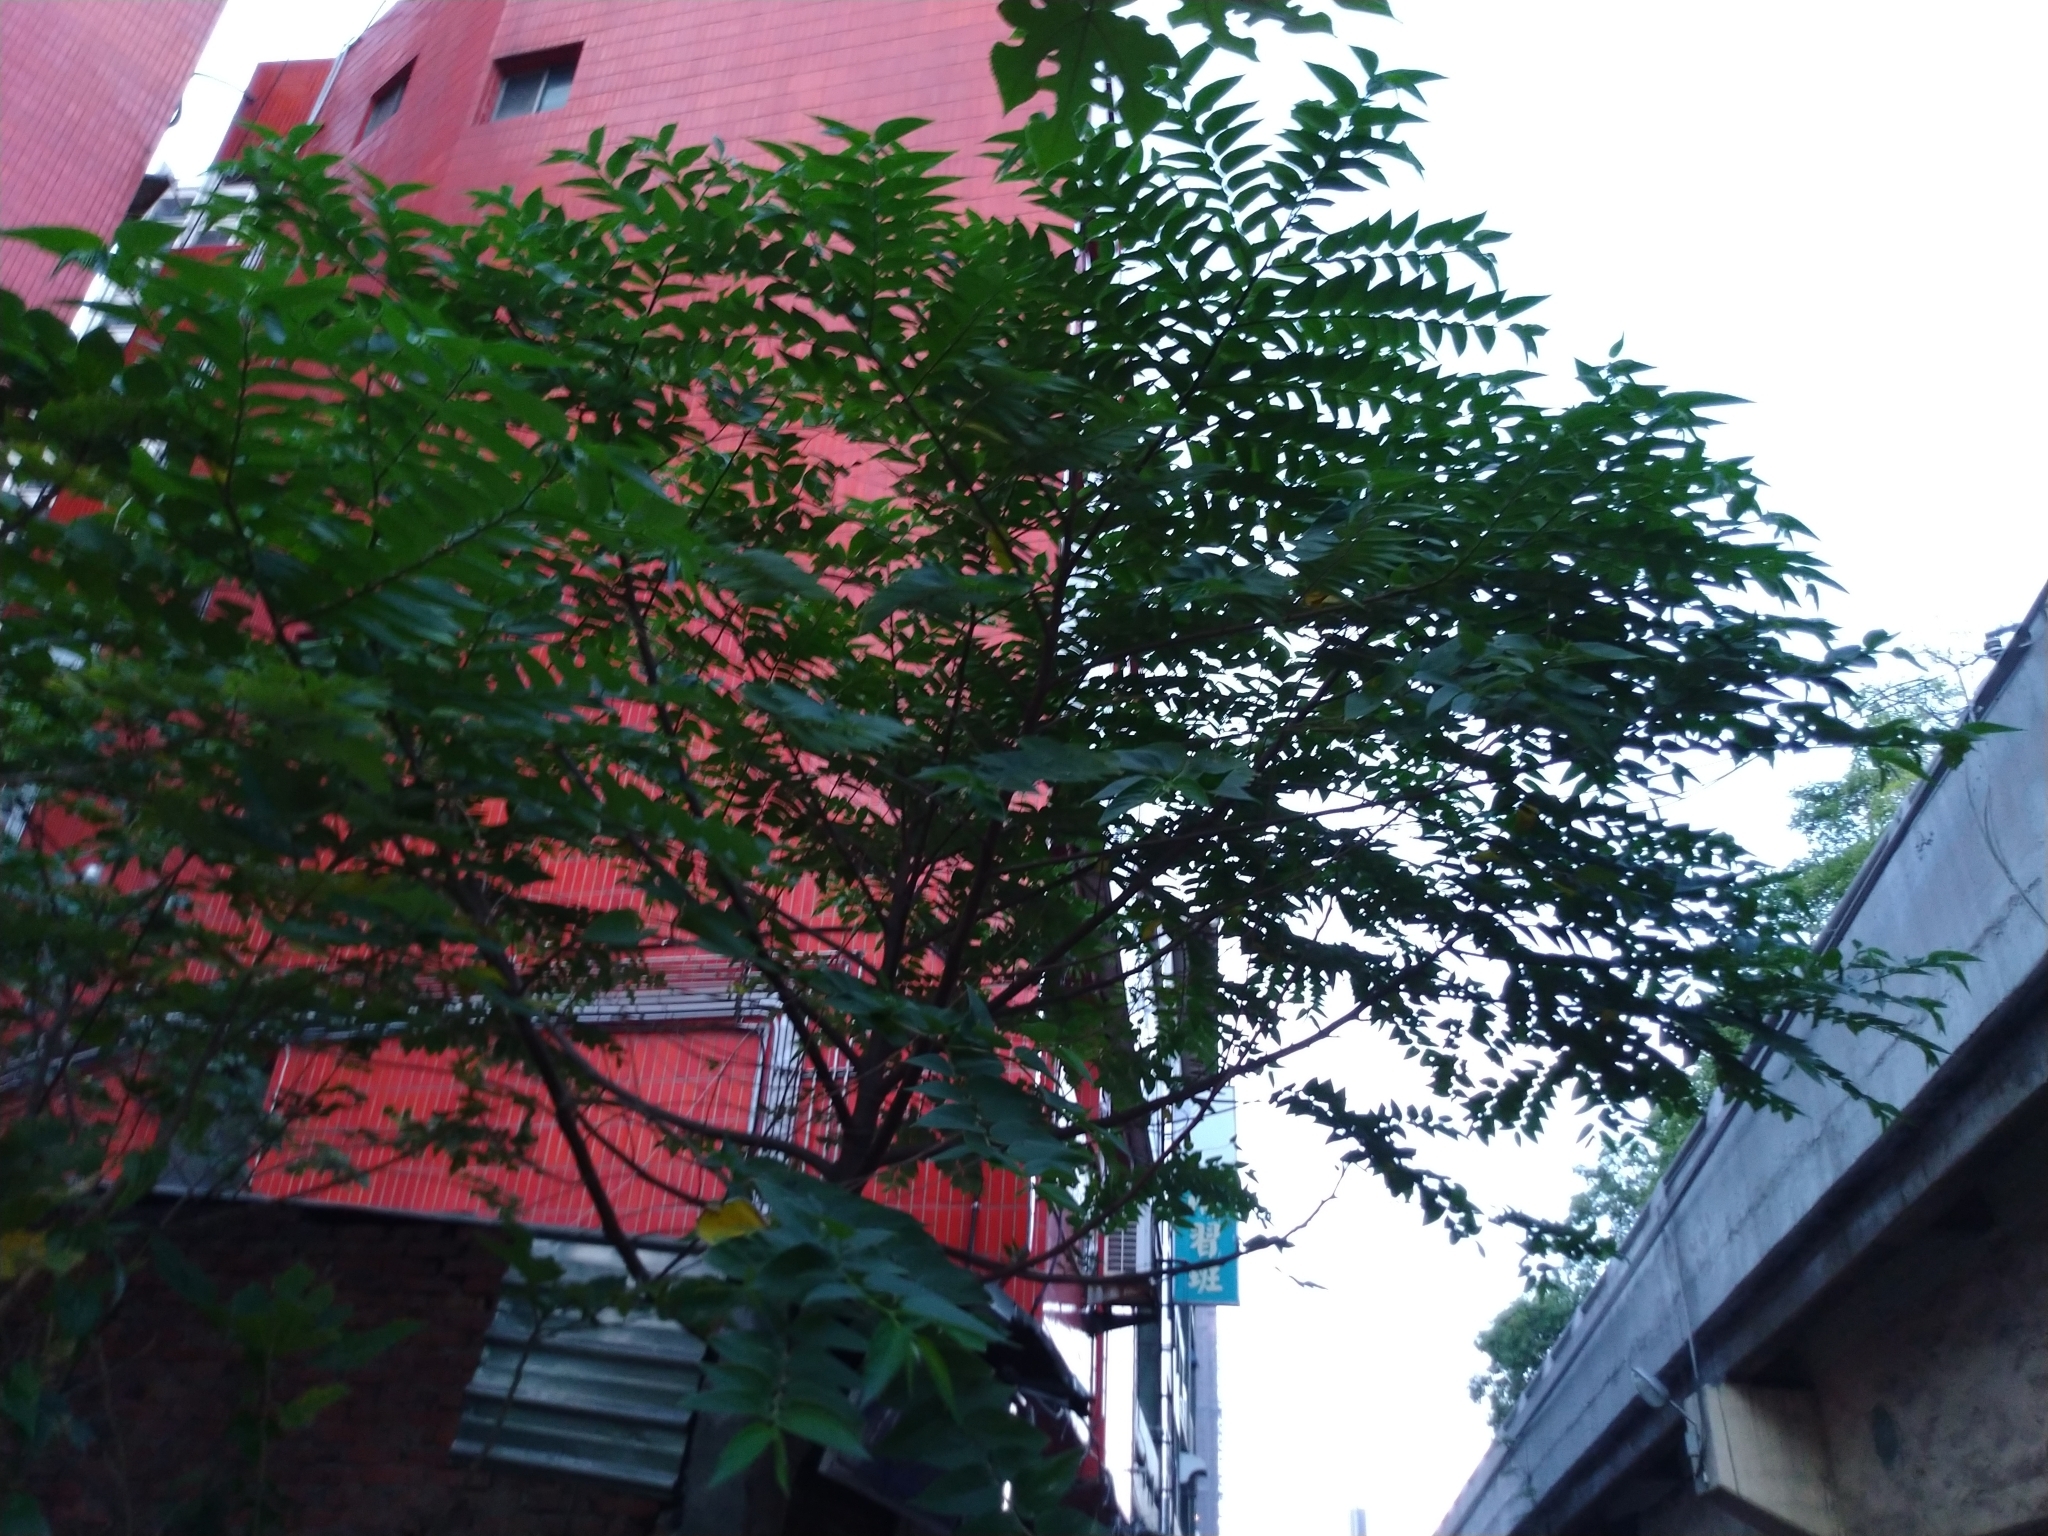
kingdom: Plantae
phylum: Tracheophyta
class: Magnoliopsida
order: Rosales
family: Cannabaceae
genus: Trema
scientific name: Trema orientale
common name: Indian charcoal tree
